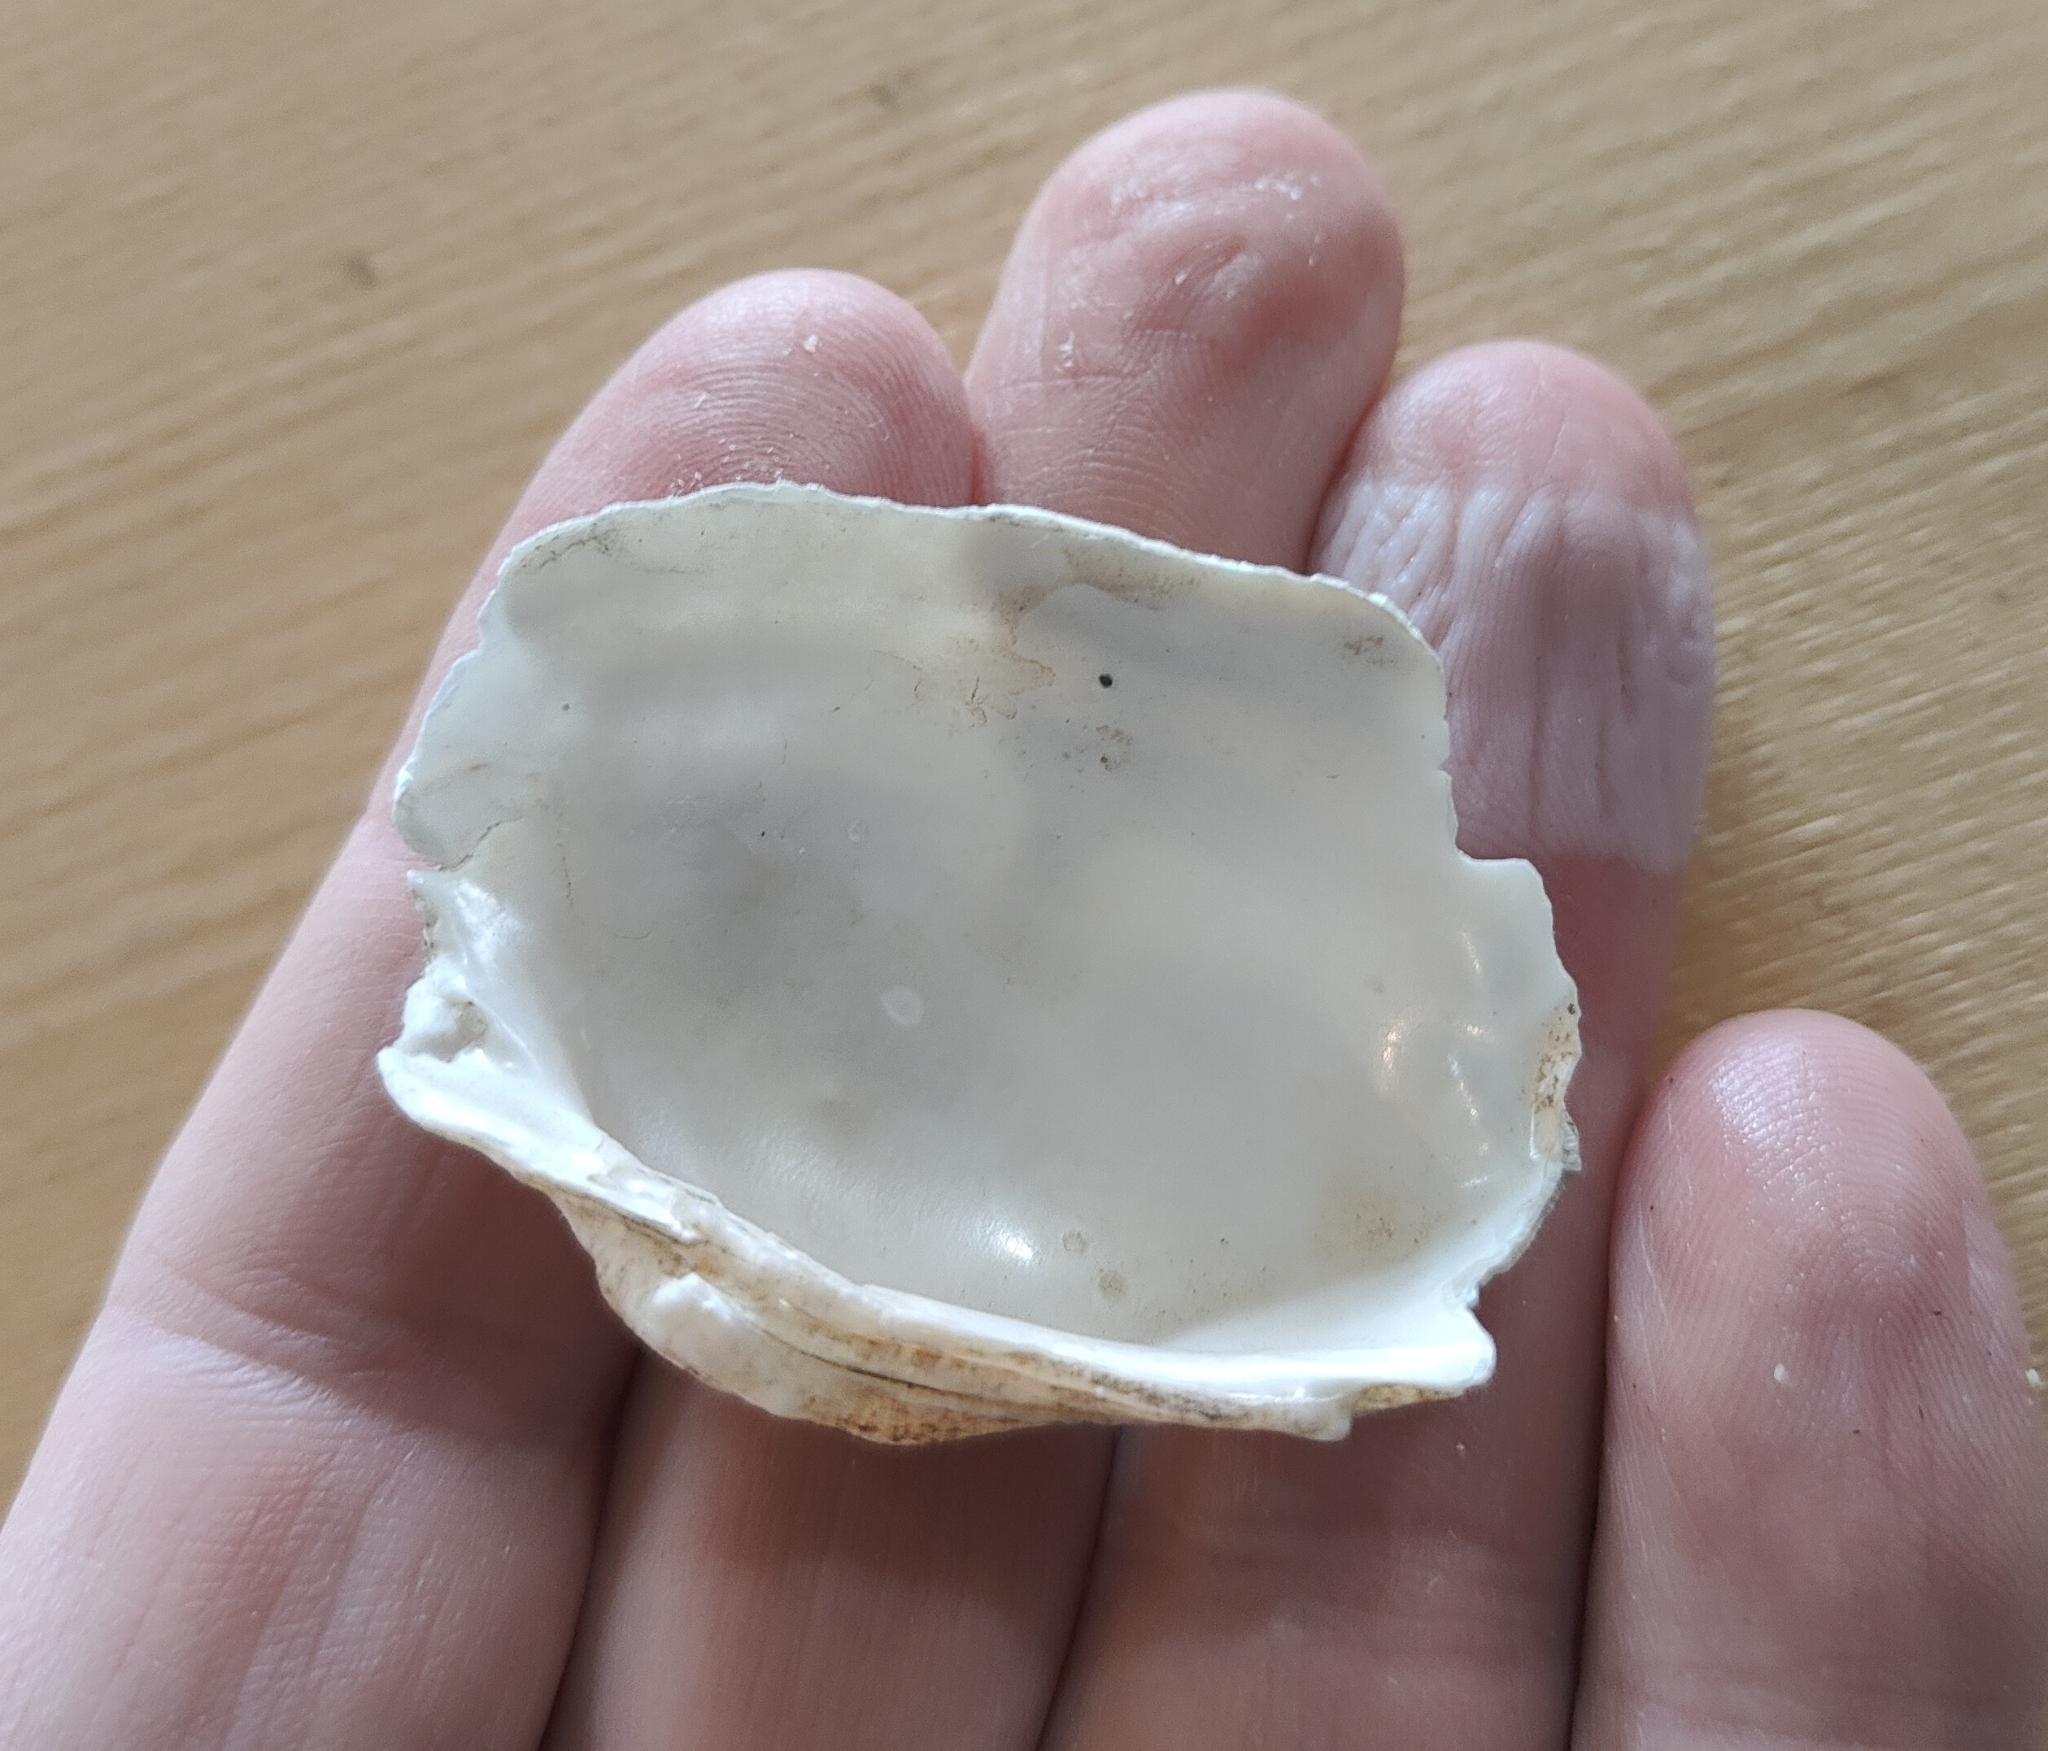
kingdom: Animalia
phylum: Mollusca
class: Bivalvia
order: Unionida
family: Unionidae
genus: Alasmidonta
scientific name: Alasmidonta marginata
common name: Elktoe
